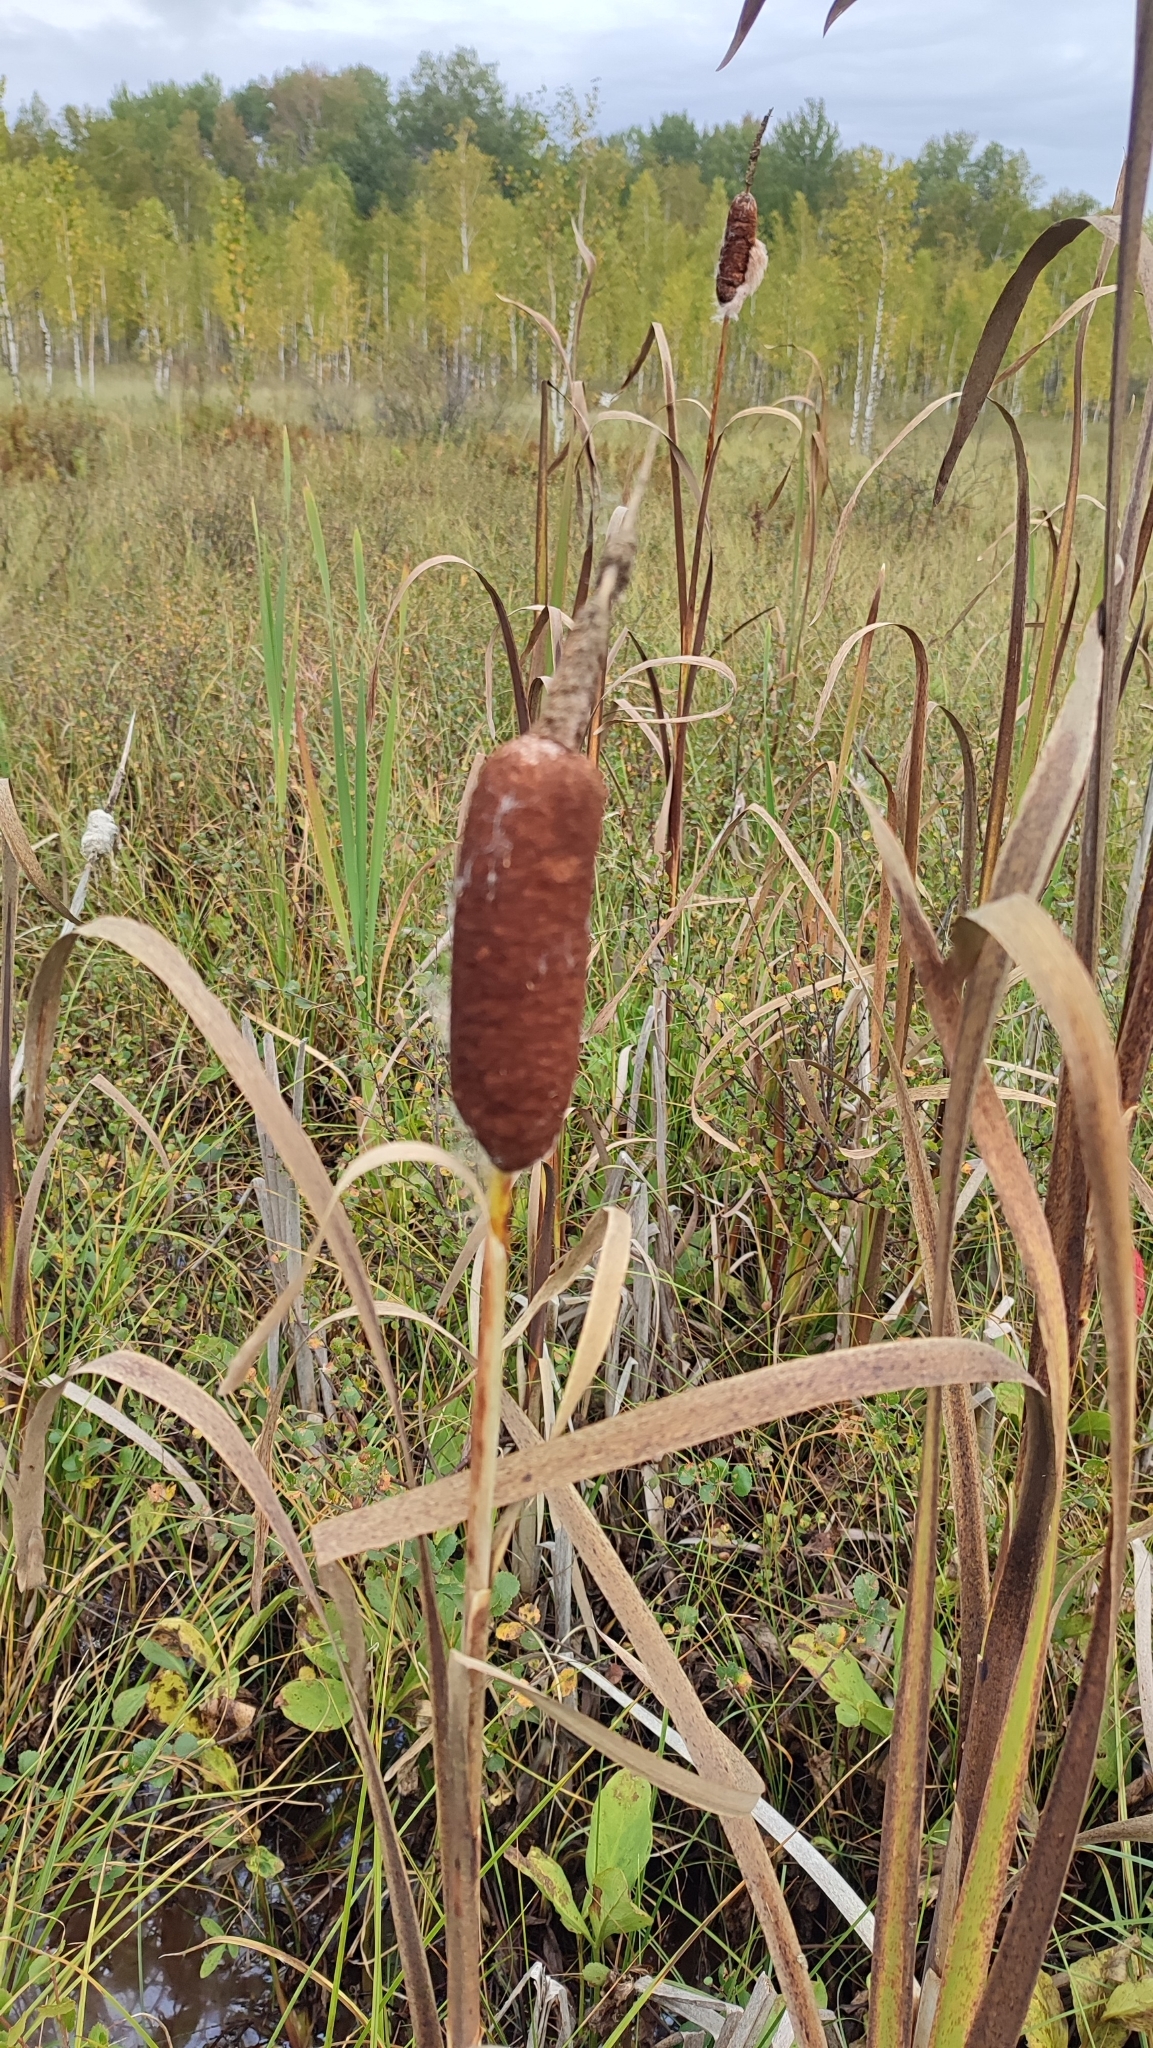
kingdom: Plantae
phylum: Tracheophyta
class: Liliopsida
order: Poales
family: Typhaceae
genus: Typha
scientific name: Typha latifolia
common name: Broadleaf cattail
